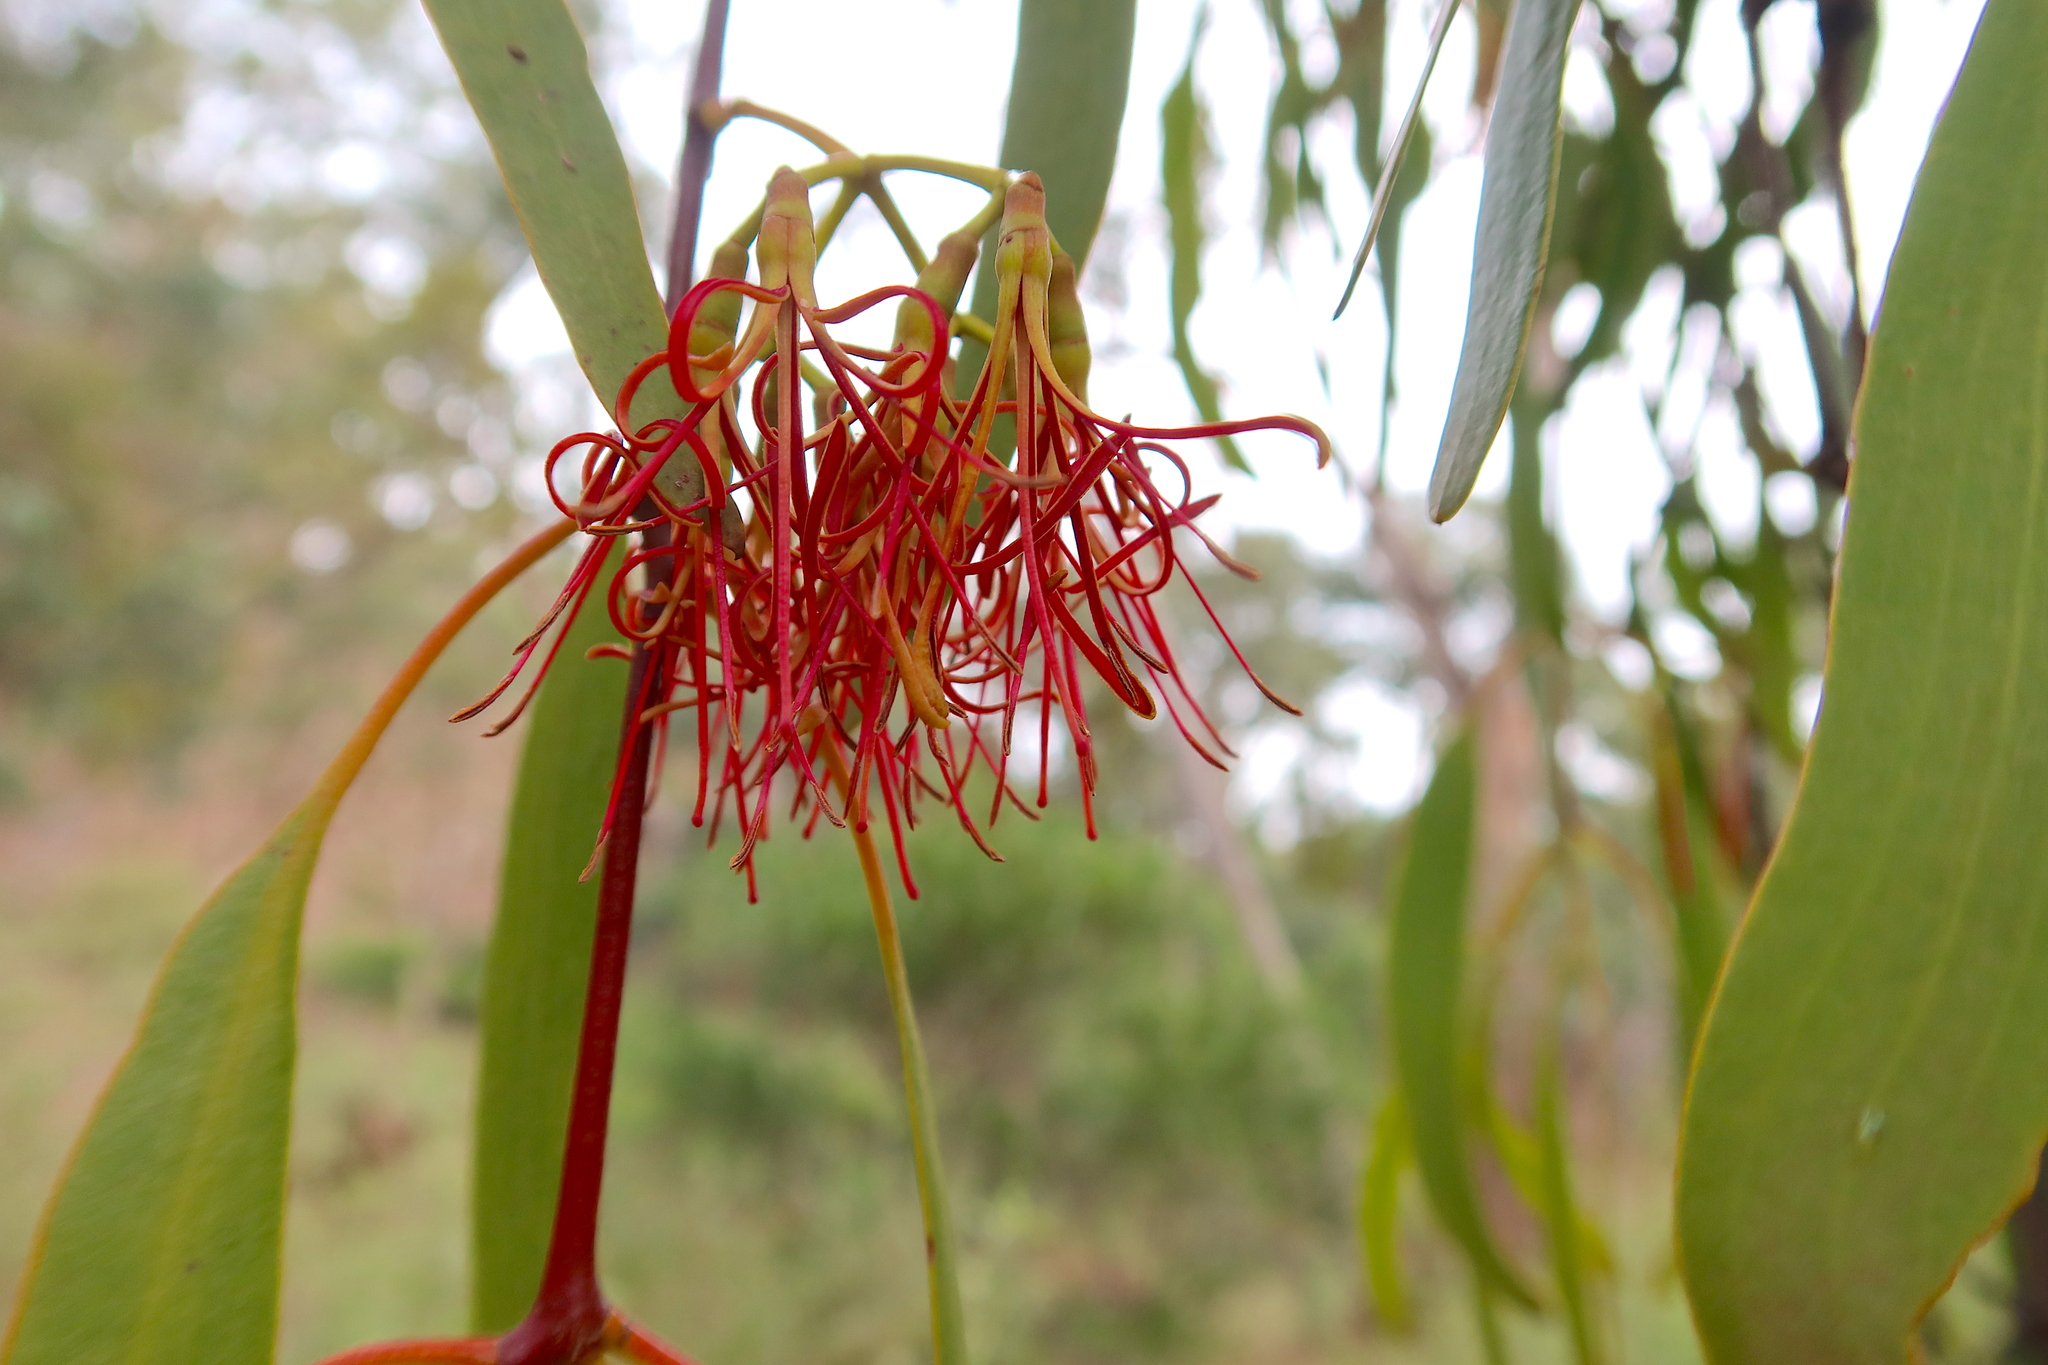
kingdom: Plantae
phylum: Tracheophyta
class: Magnoliopsida
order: Santalales
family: Loranthaceae
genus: Amyema
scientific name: Amyema miquelii
